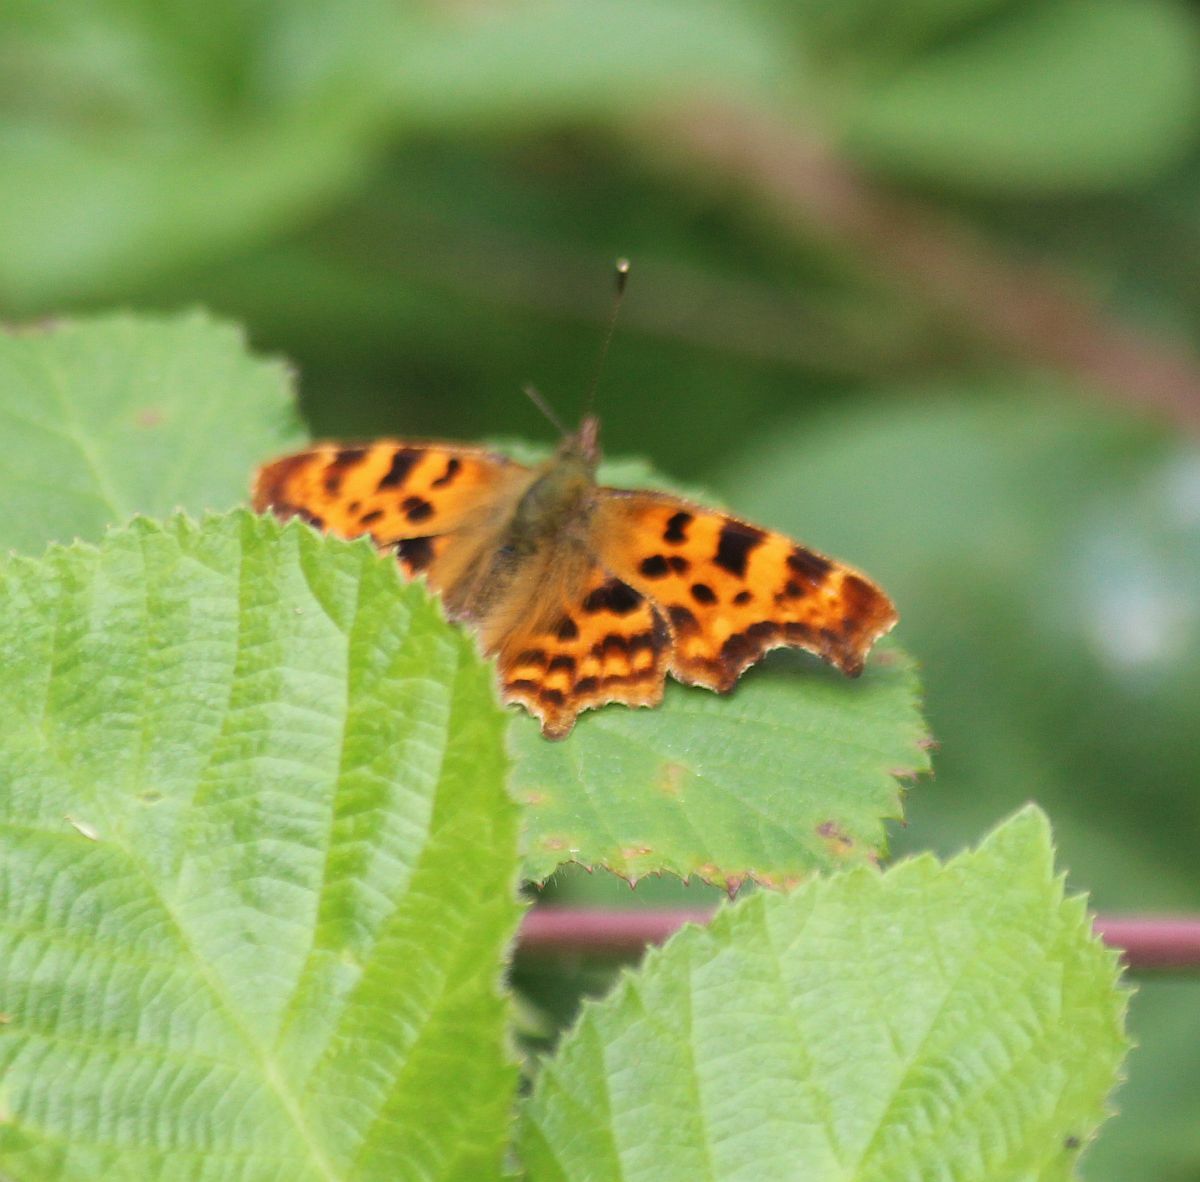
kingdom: Animalia
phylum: Arthropoda
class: Insecta
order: Lepidoptera
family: Nymphalidae
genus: Polygonia
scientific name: Polygonia c-album
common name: Comma
